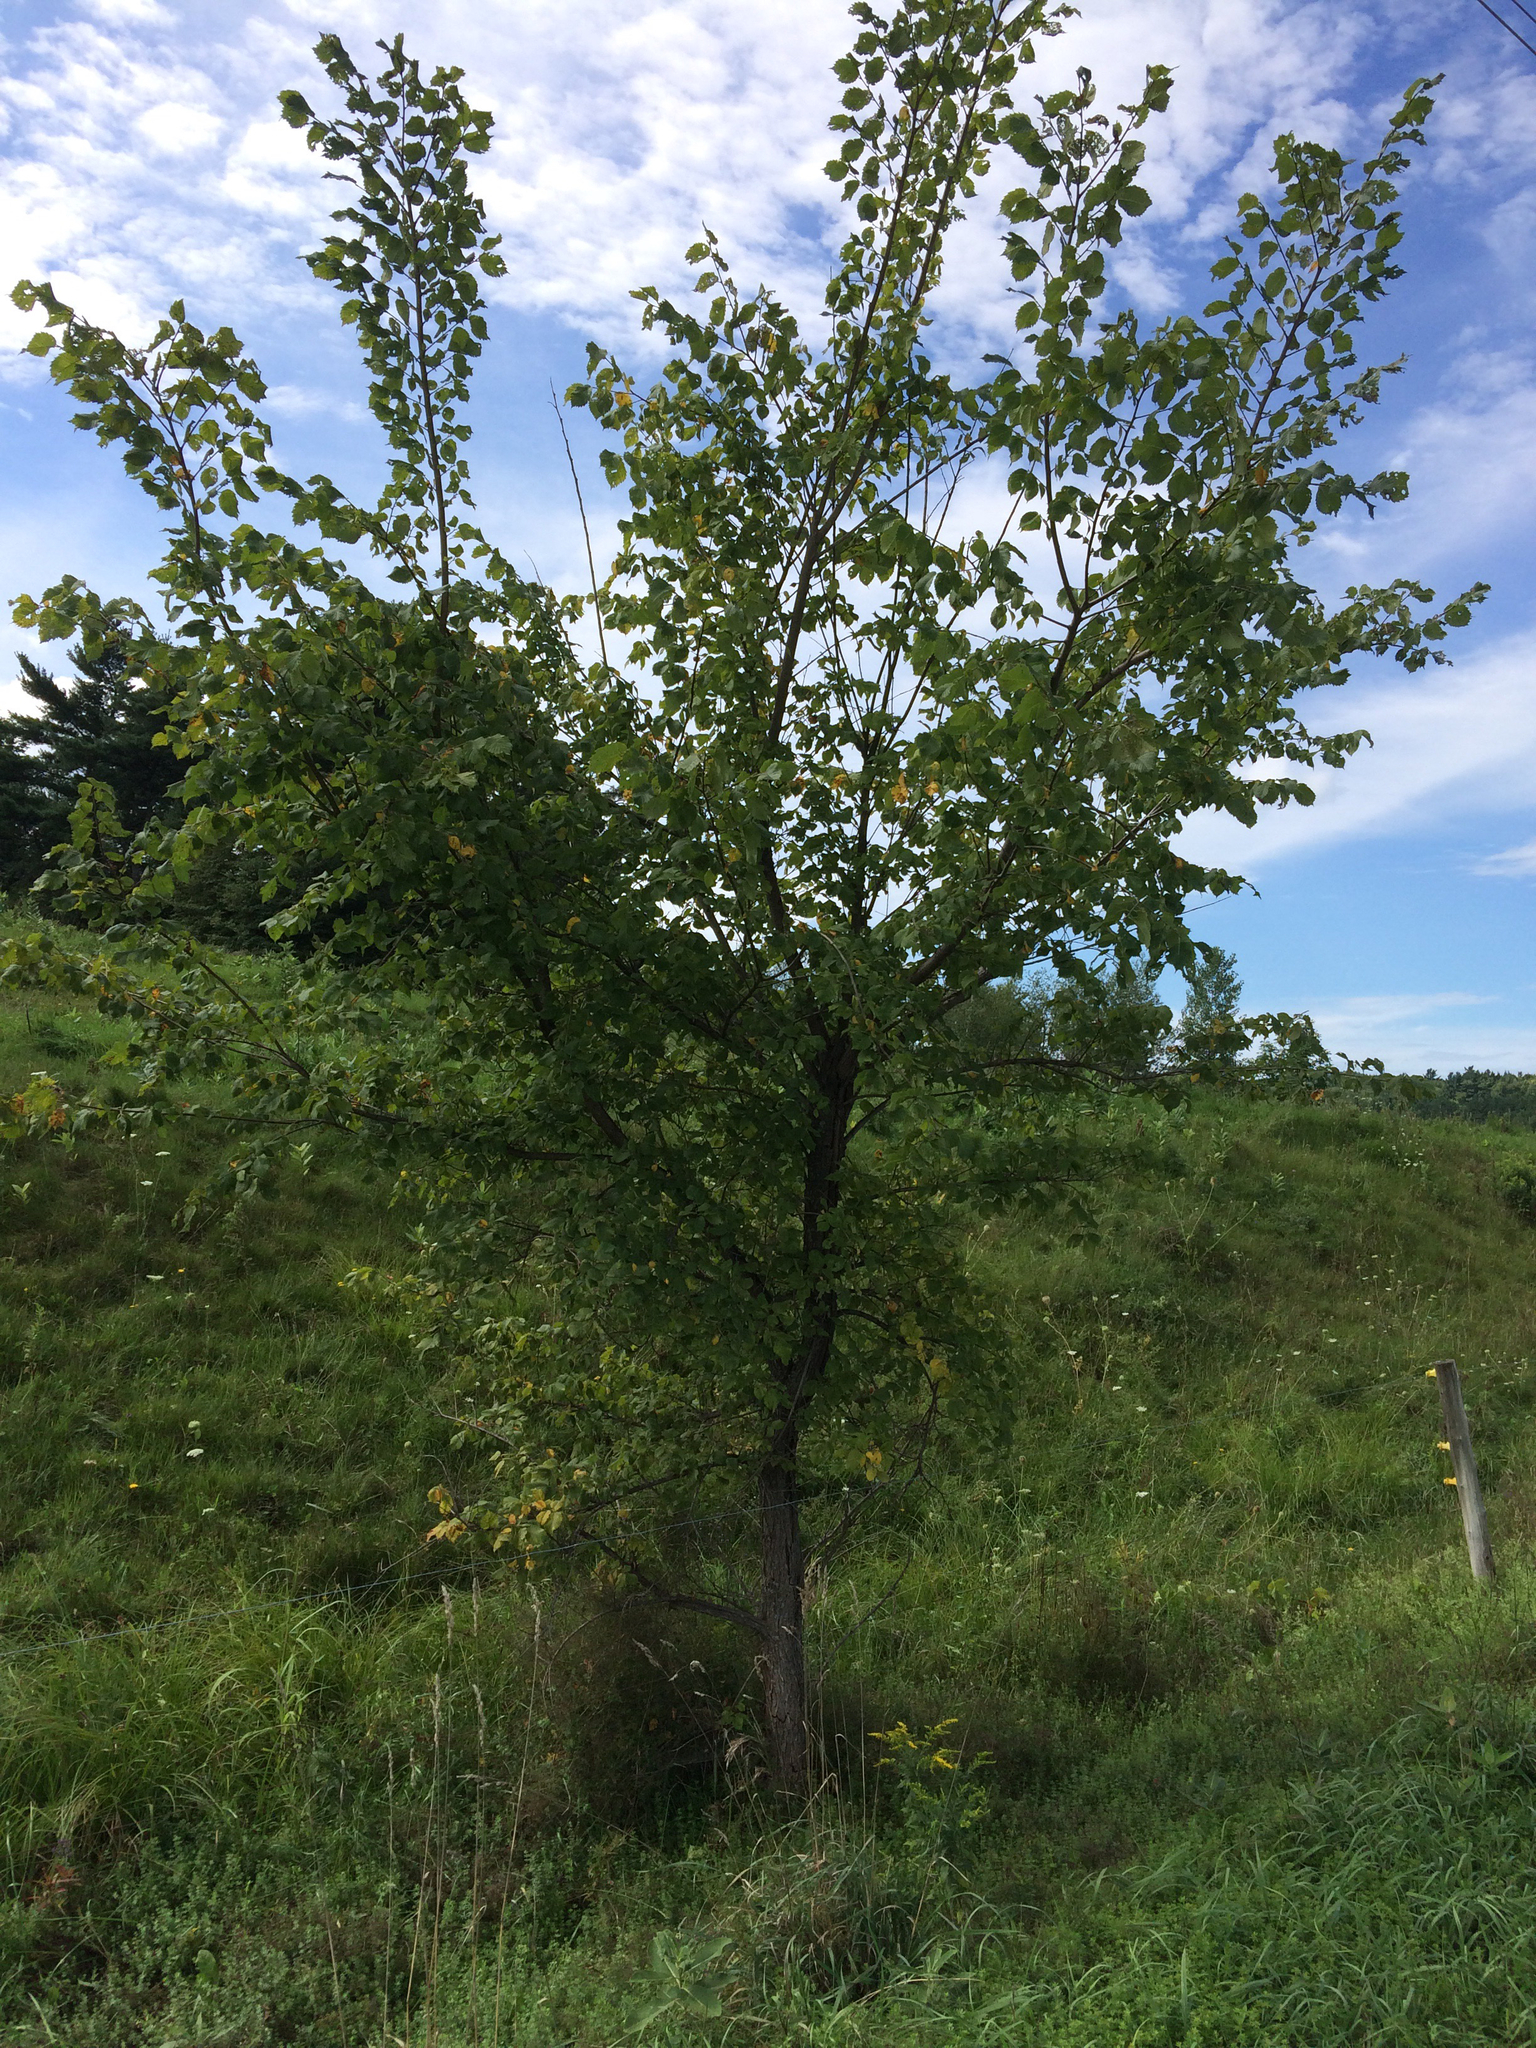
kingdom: Plantae
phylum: Tracheophyta
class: Magnoliopsida
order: Rosales
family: Ulmaceae
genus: Ulmus
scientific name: Ulmus americana
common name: American elm
